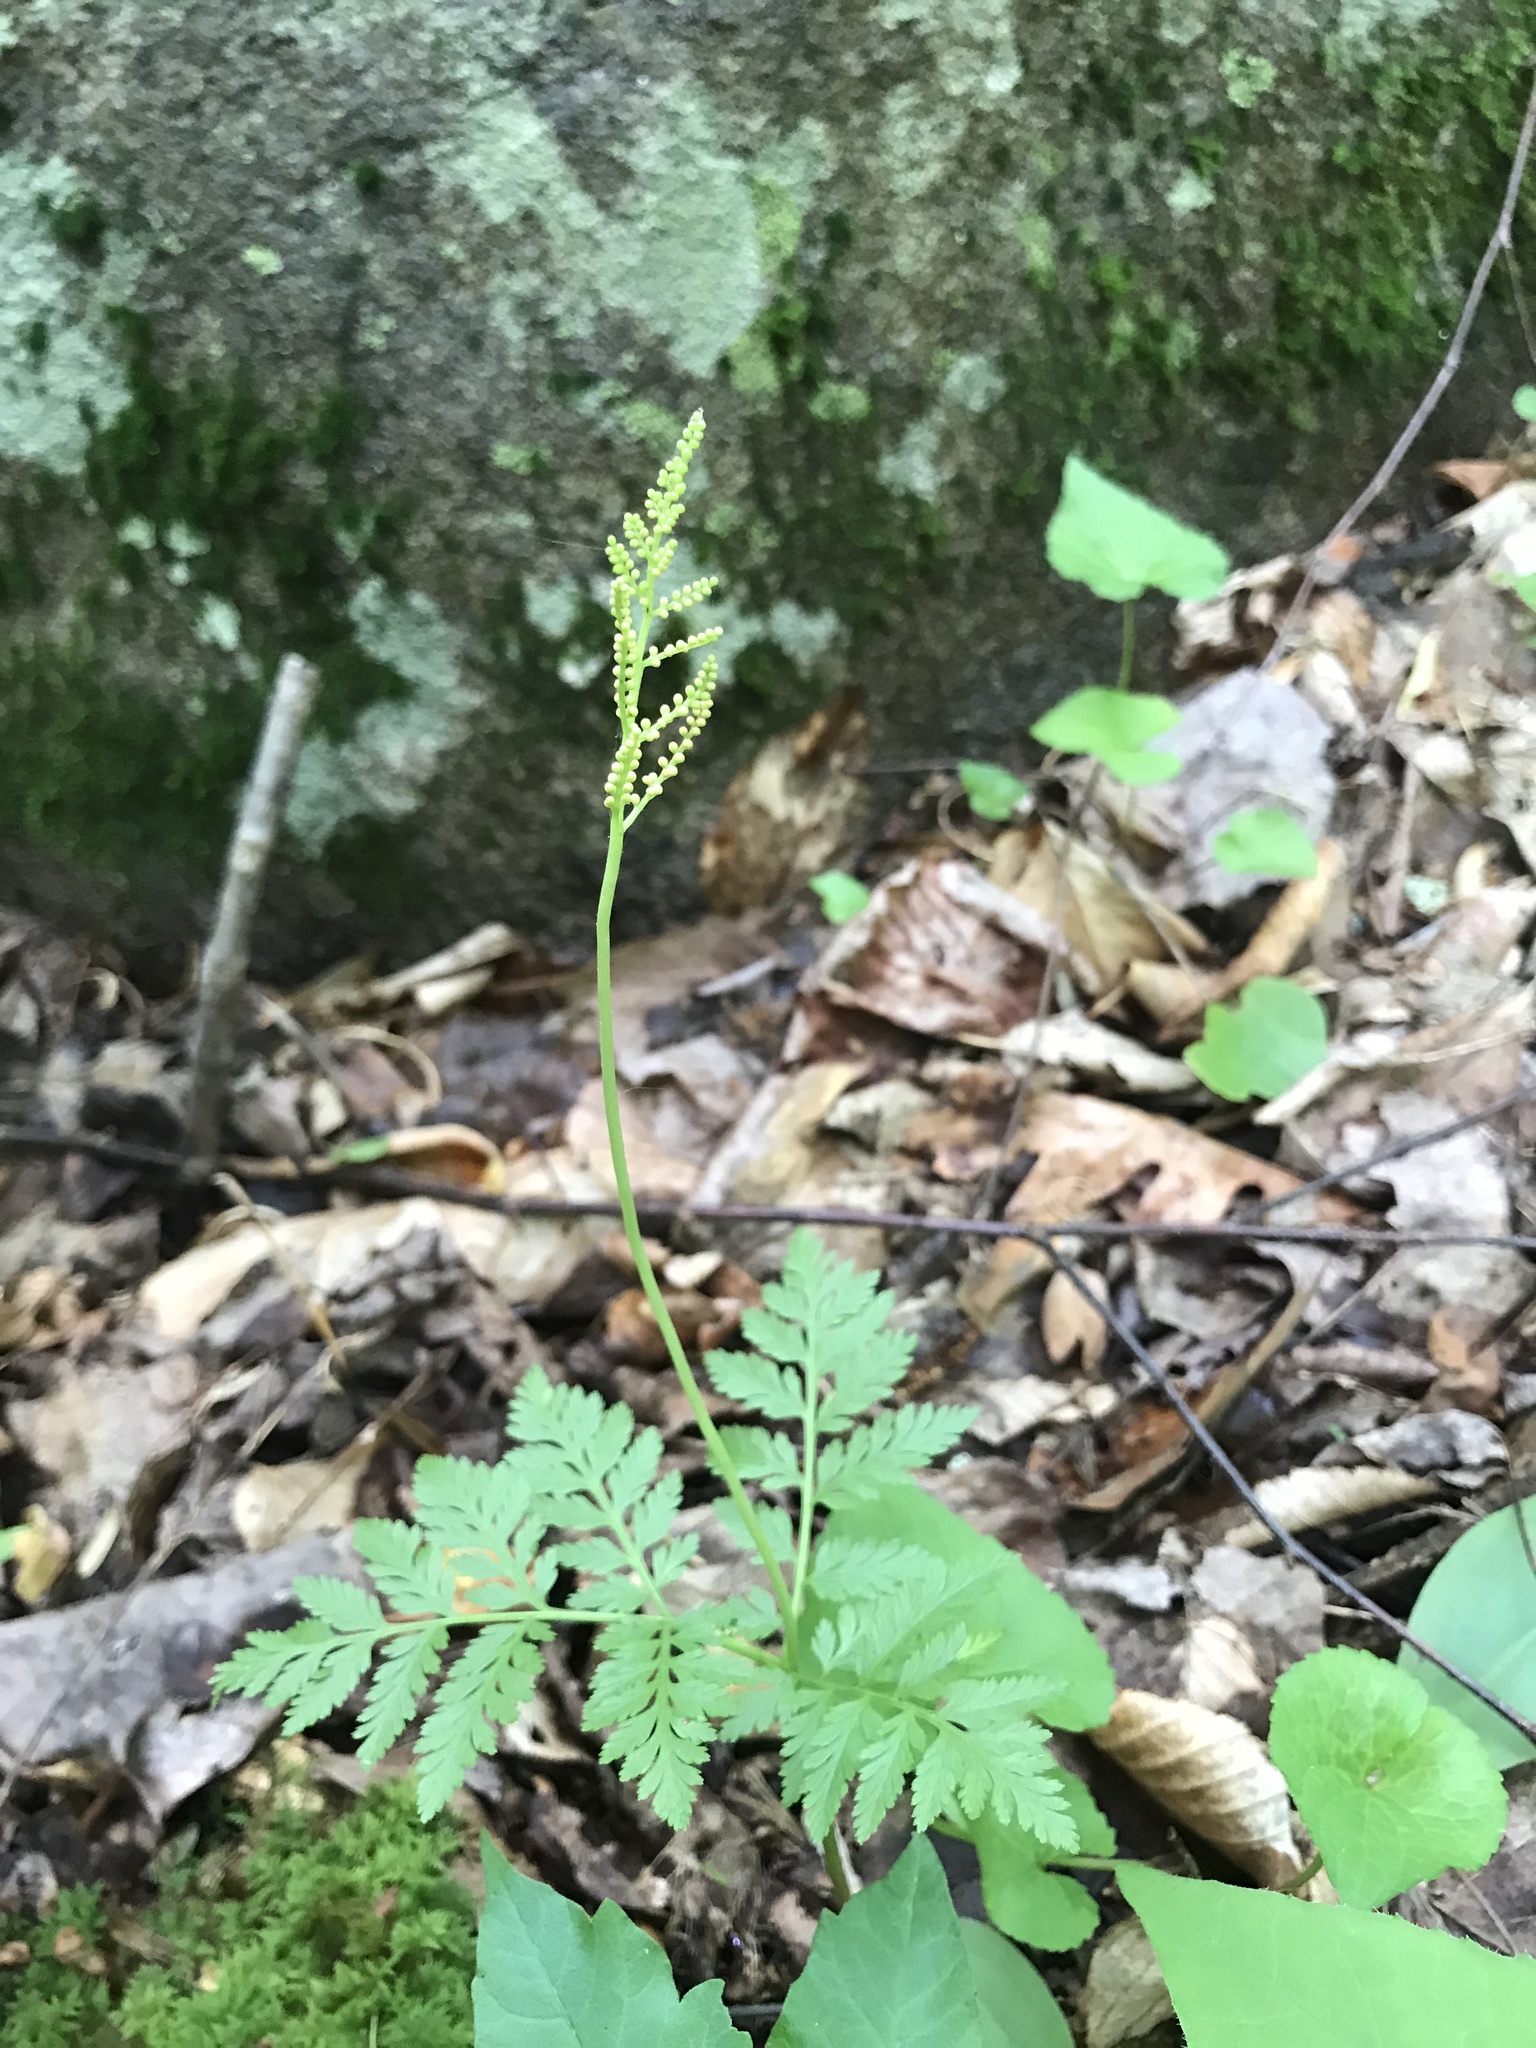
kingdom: Plantae
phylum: Tracheophyta
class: Polypodiopsida
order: Ophioglossales
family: Ophioglossaceae
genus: Botrypus
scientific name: Botrypus virginianus
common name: Common grapefern
